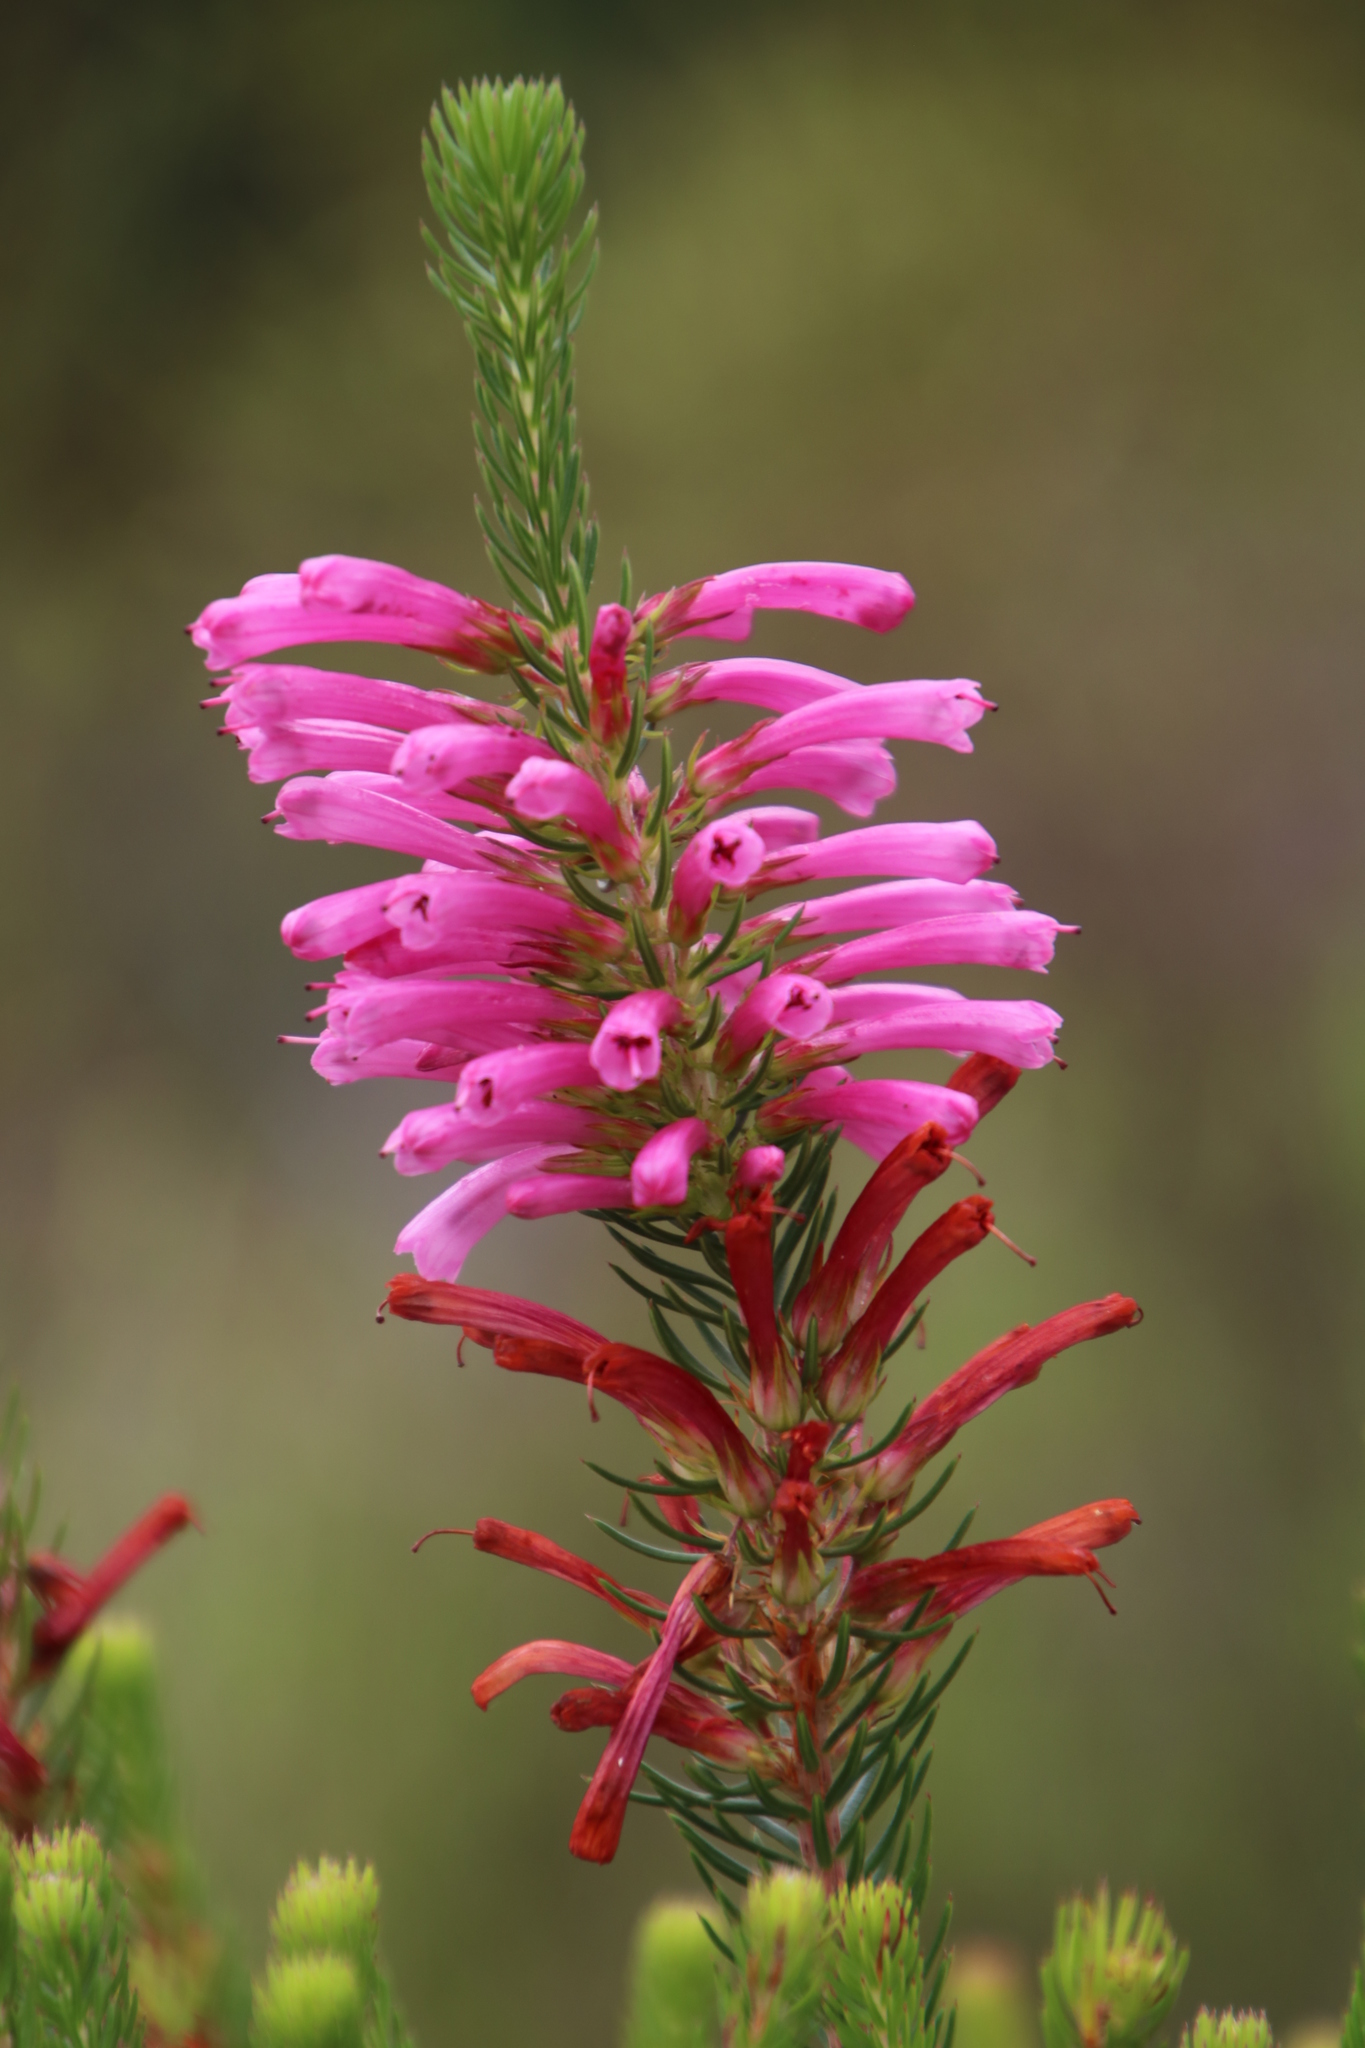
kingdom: Plantae
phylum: Tracheophyta
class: Magnoliopsida
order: Ericales
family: Ericaceae
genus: Erica
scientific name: Erica abietina
